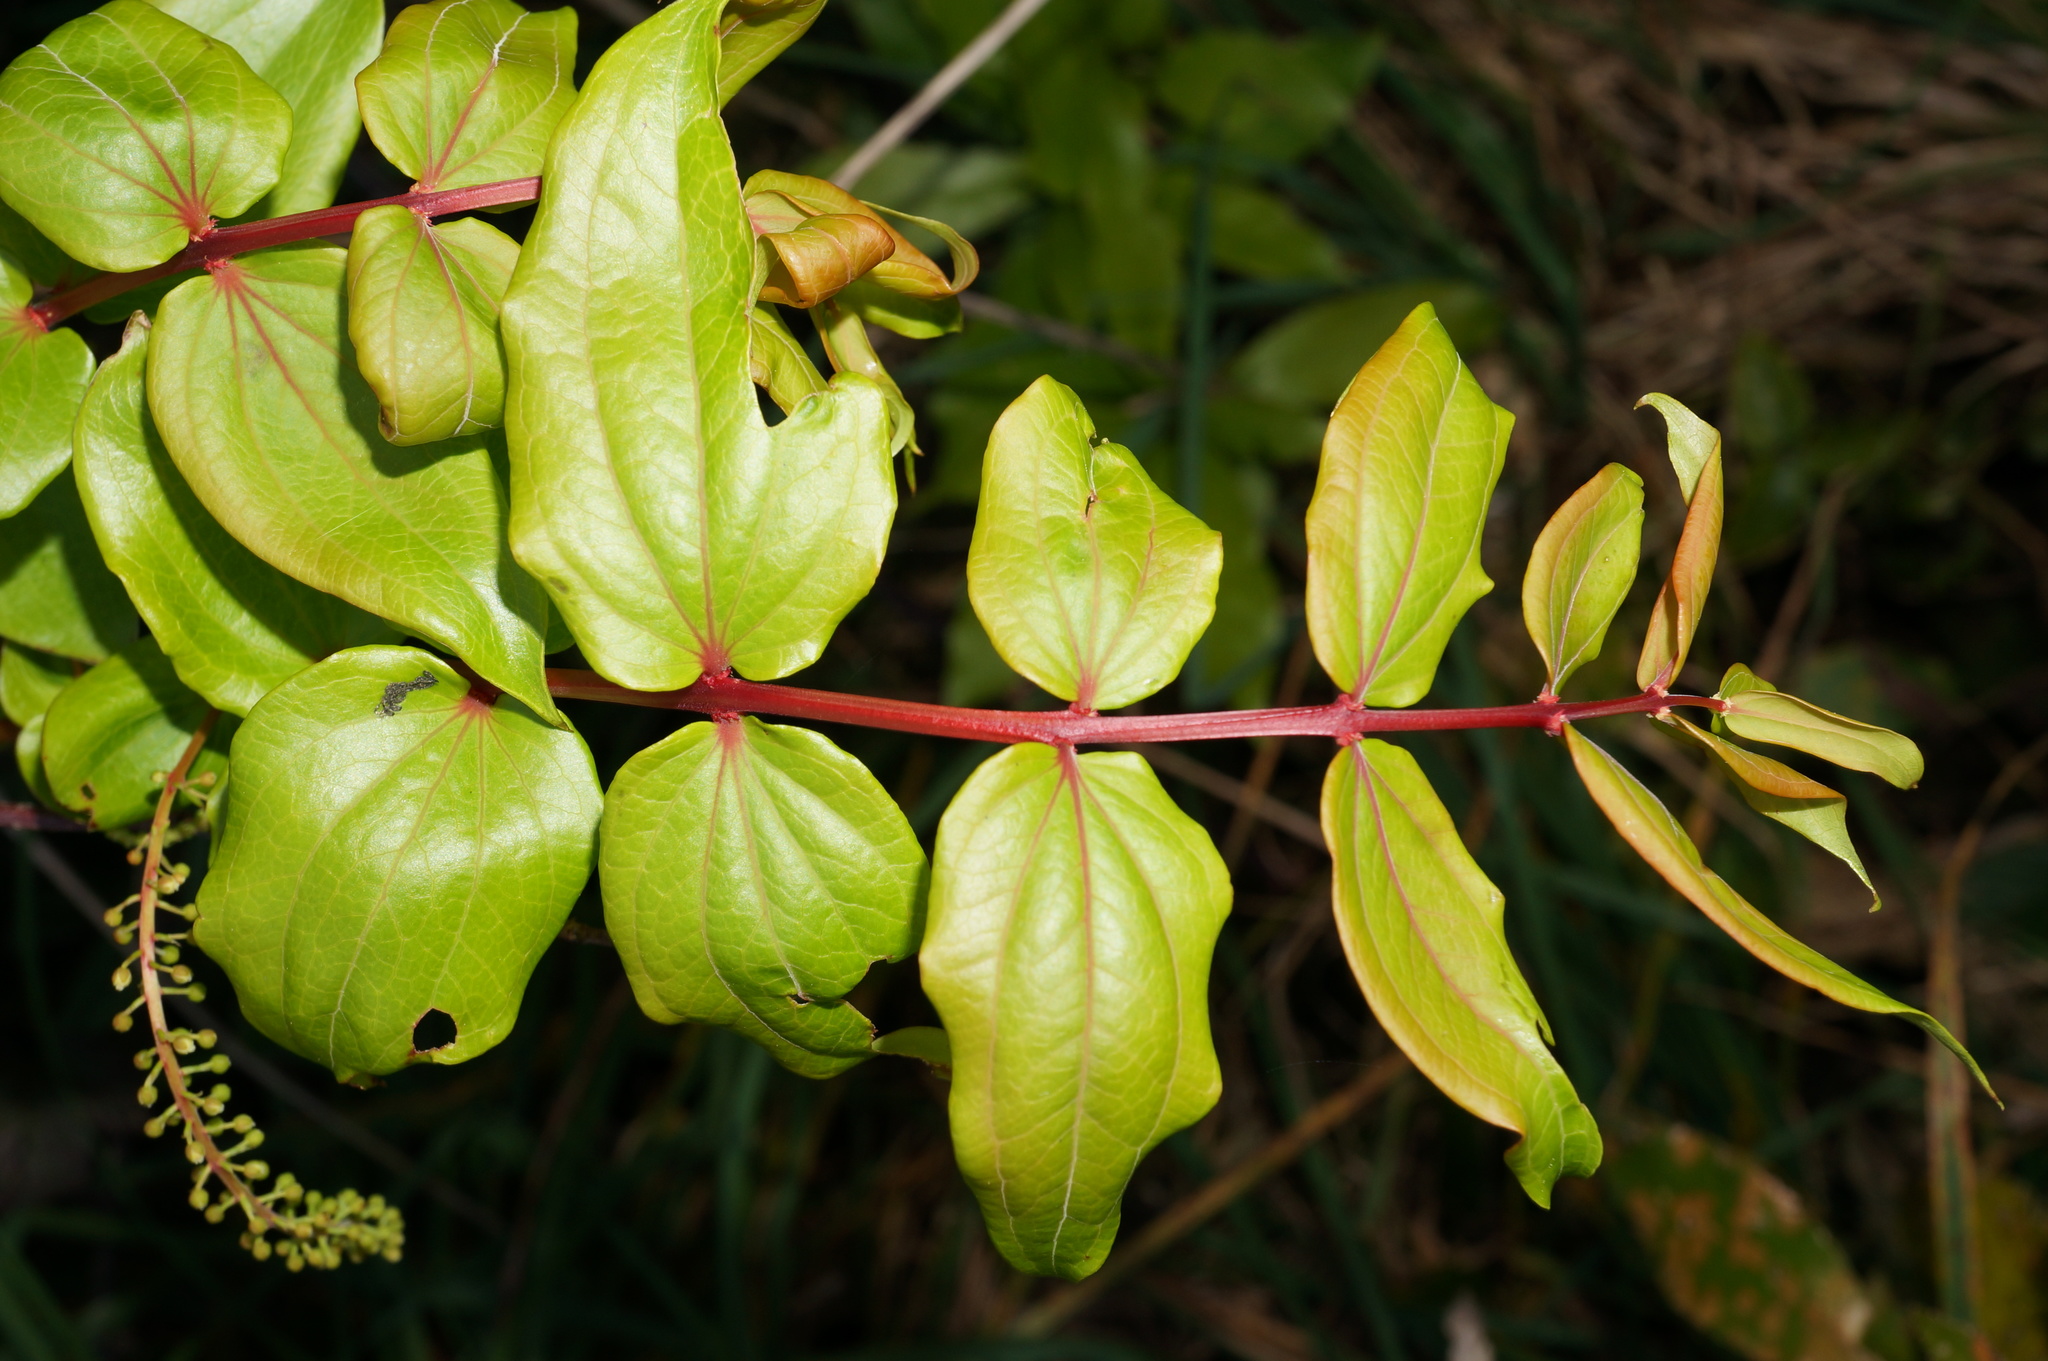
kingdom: Plantae
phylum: Tracheophyta
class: Magnoliopsida
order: Cucurbitales
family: Coriariaceae
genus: Coriaria
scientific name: Coriaria arborea
